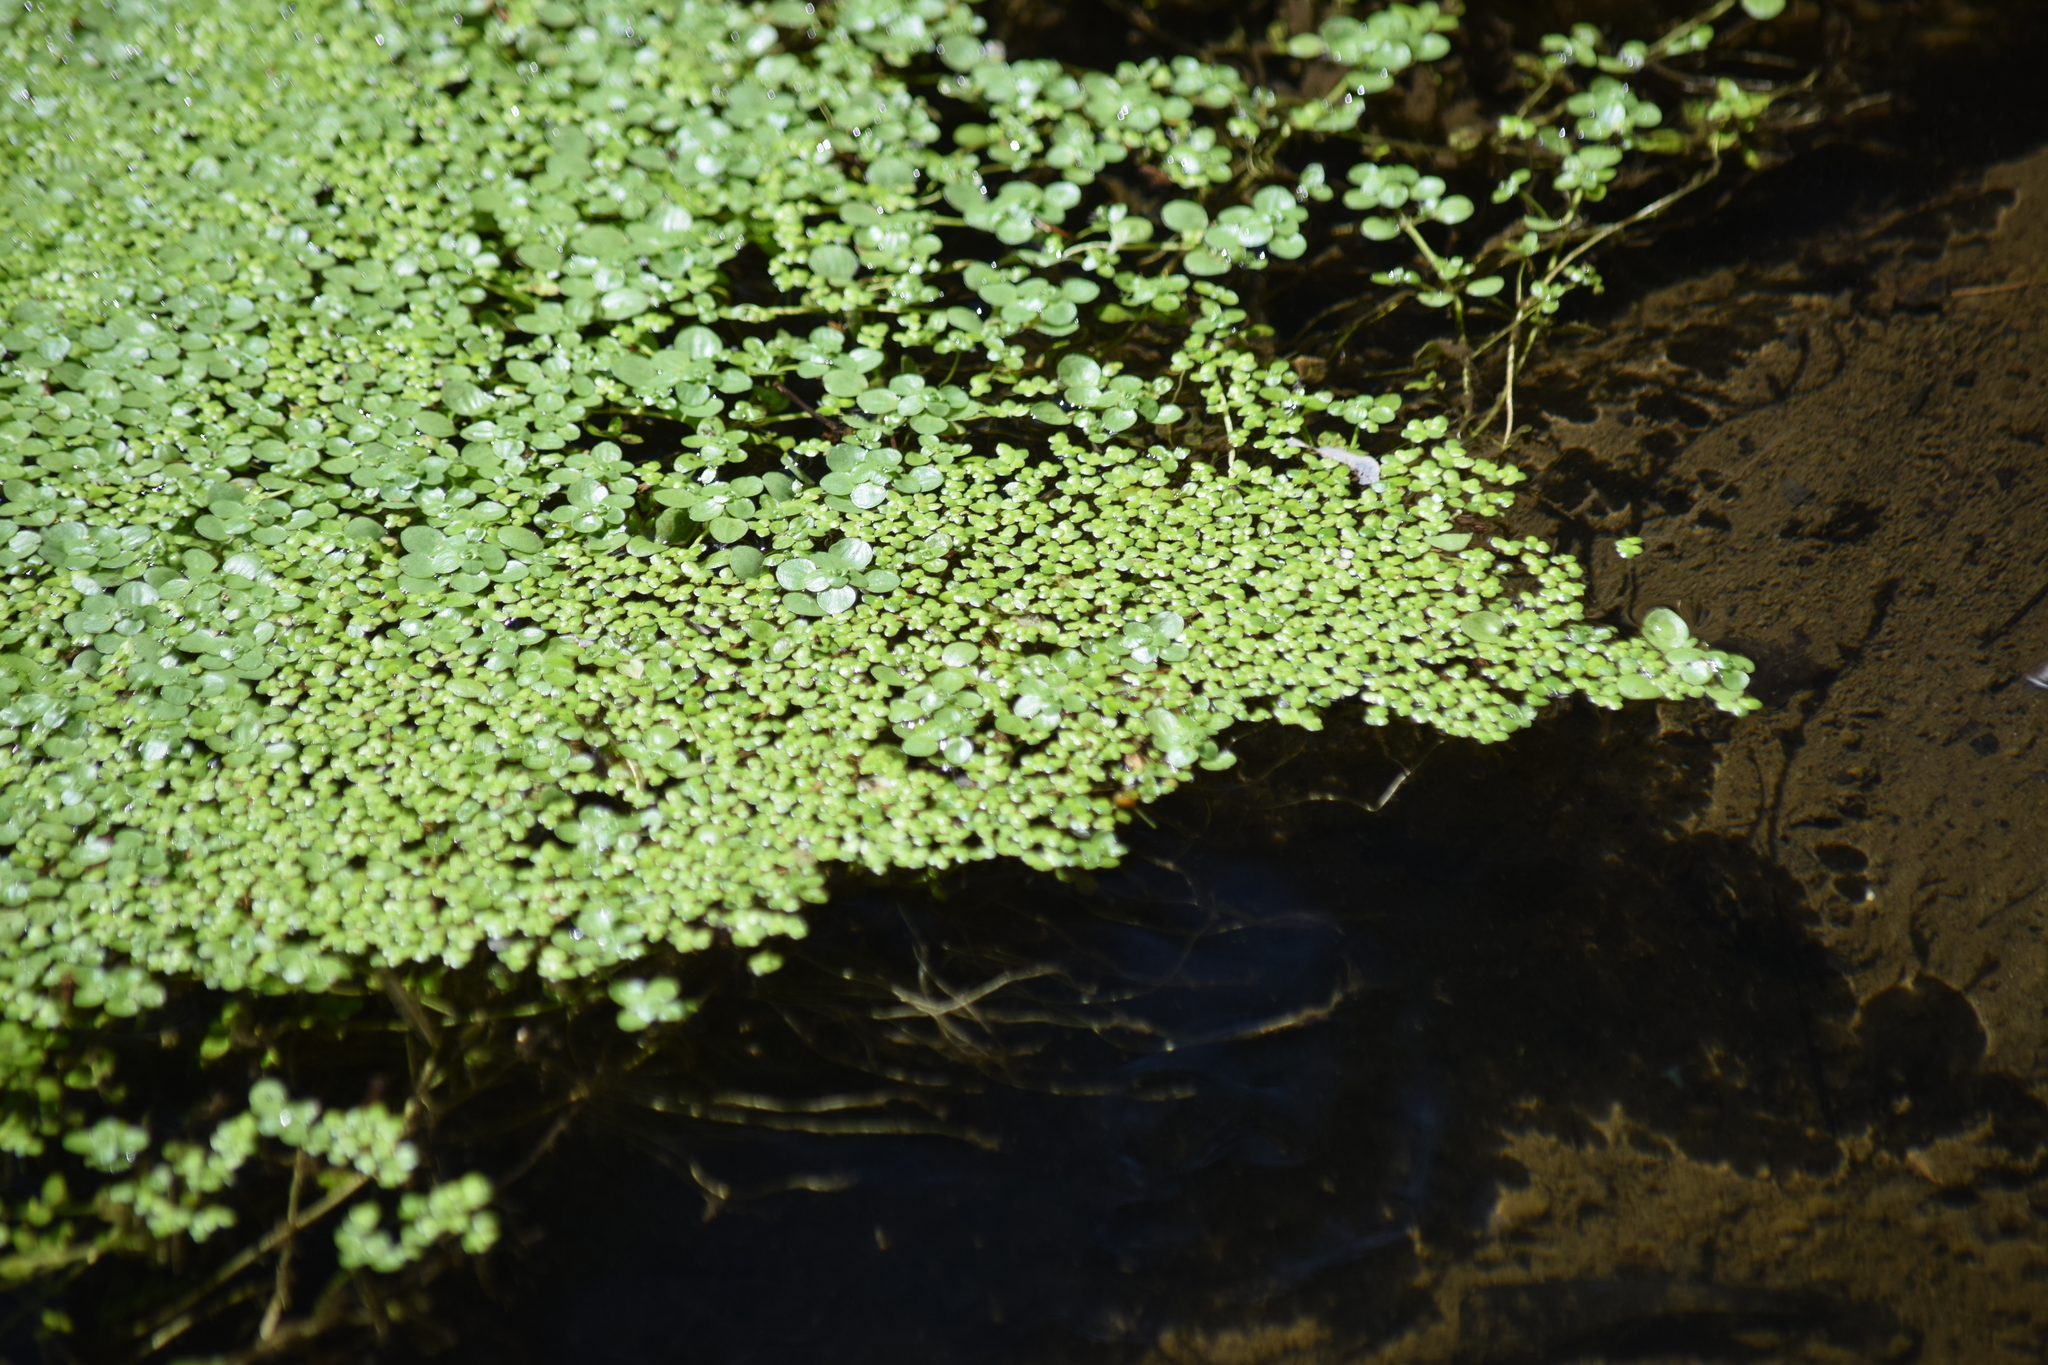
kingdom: Plantae
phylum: Tracheophyta
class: Liliopsida
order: Alismatales
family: Araceae
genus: Lemna
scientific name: Lemna minor
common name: Common duckweed
